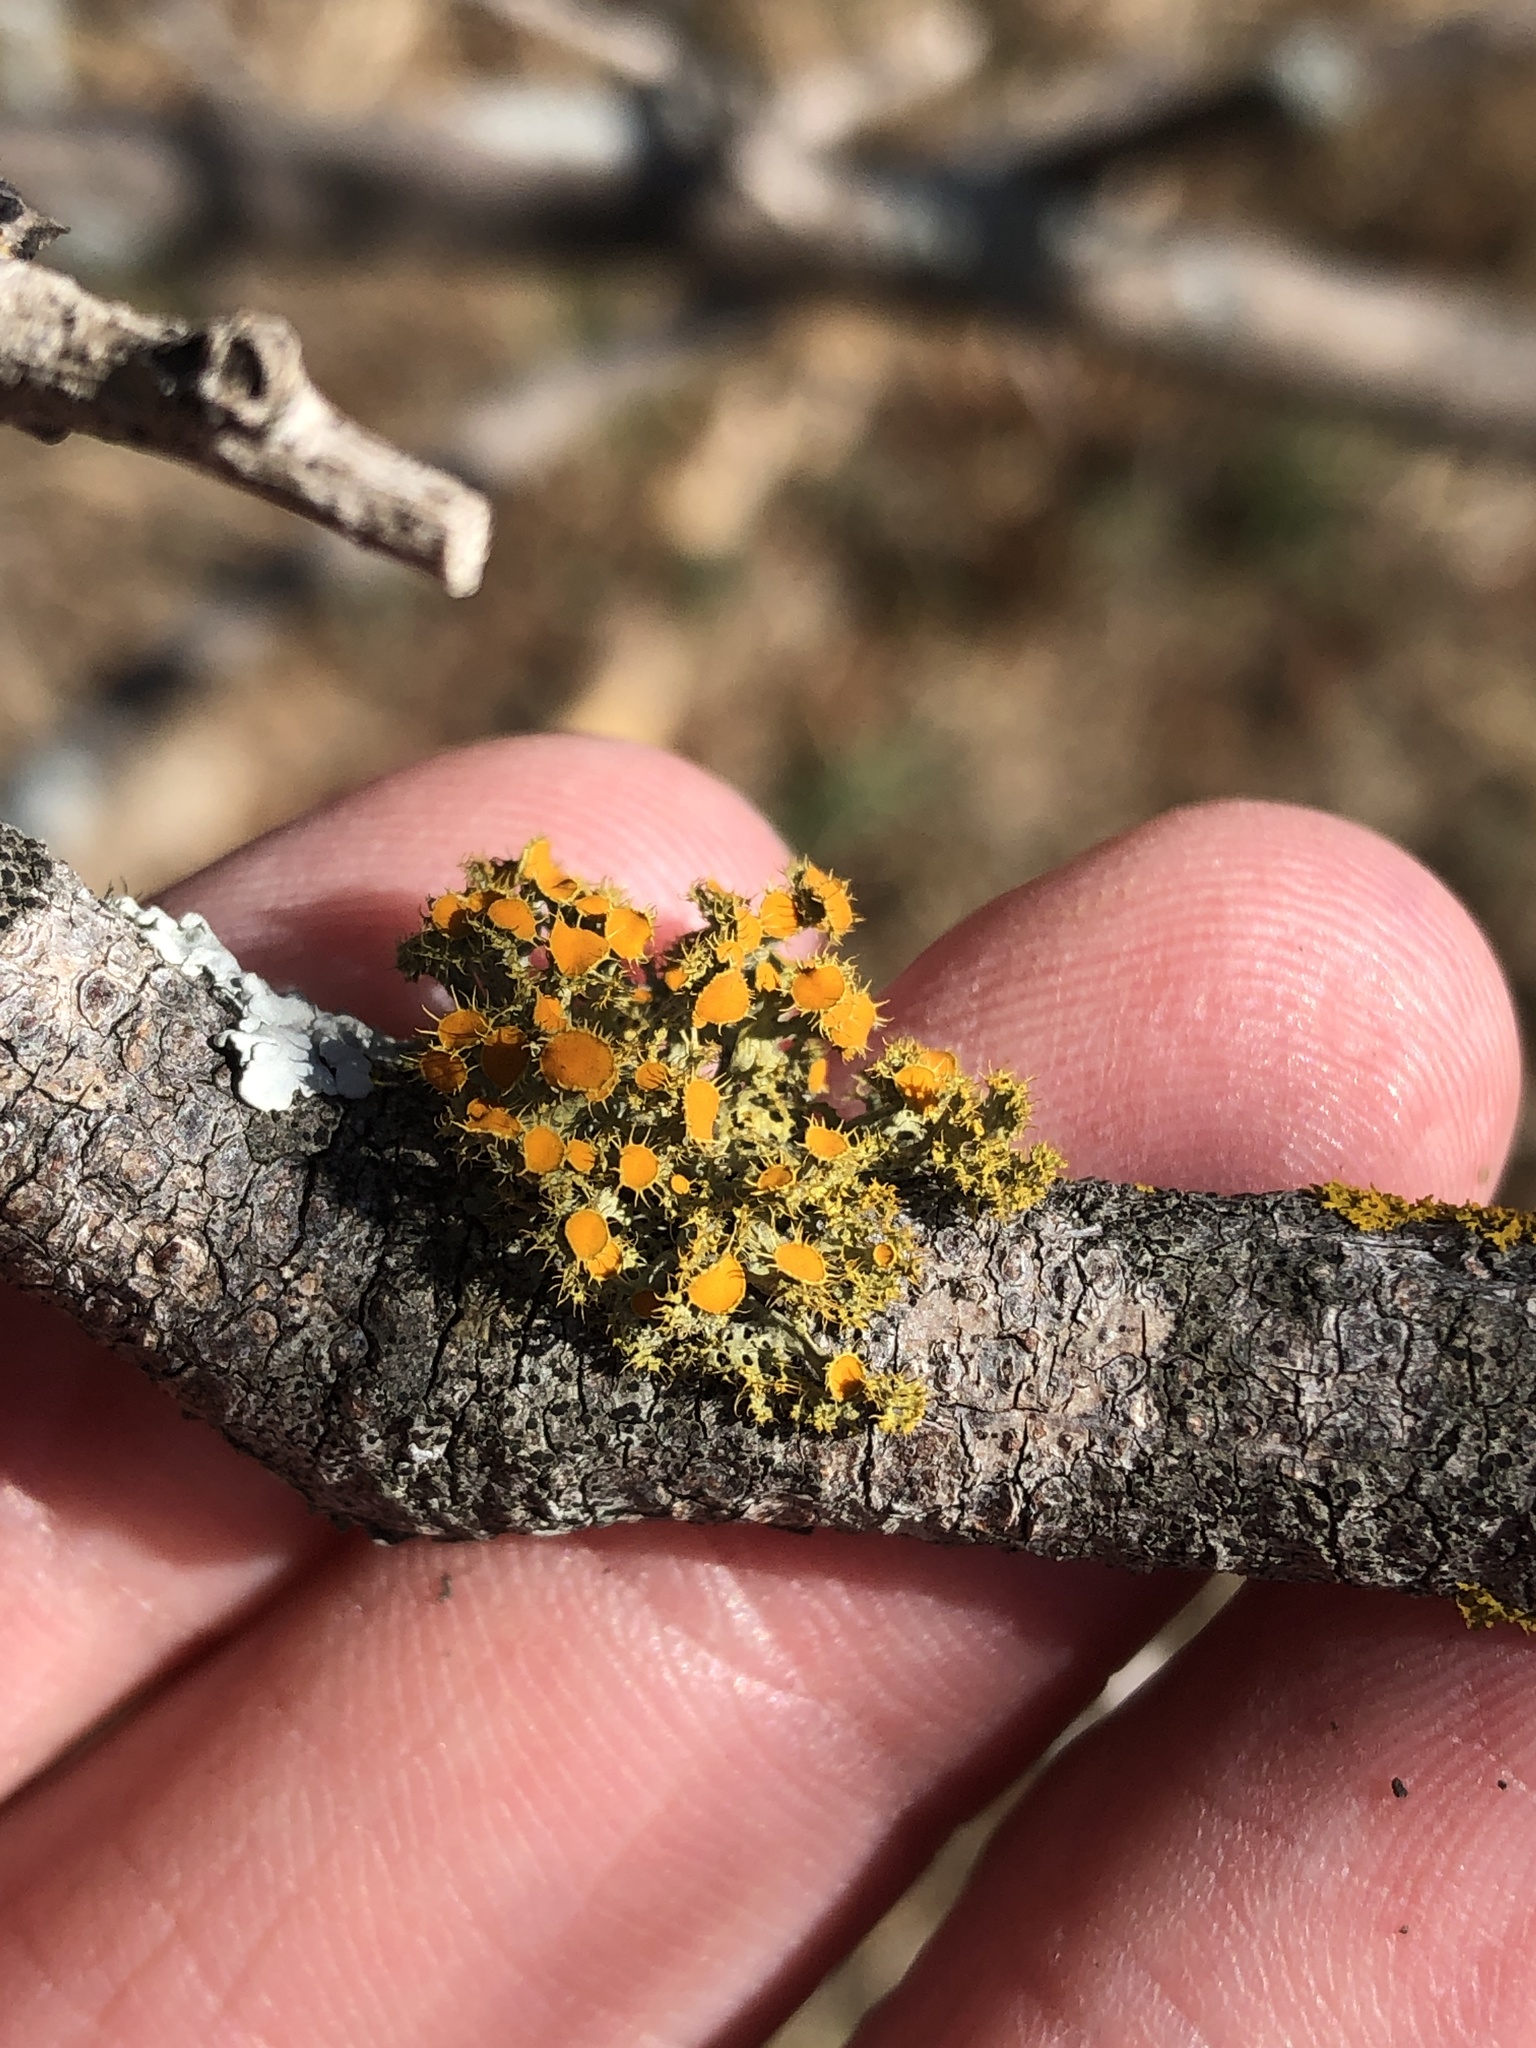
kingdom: Fungi
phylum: Ascomycota
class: Lecanoromycetes
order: Teloschistales
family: Teloschistaceae
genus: Niorma
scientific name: Niorma chrysophthalma
